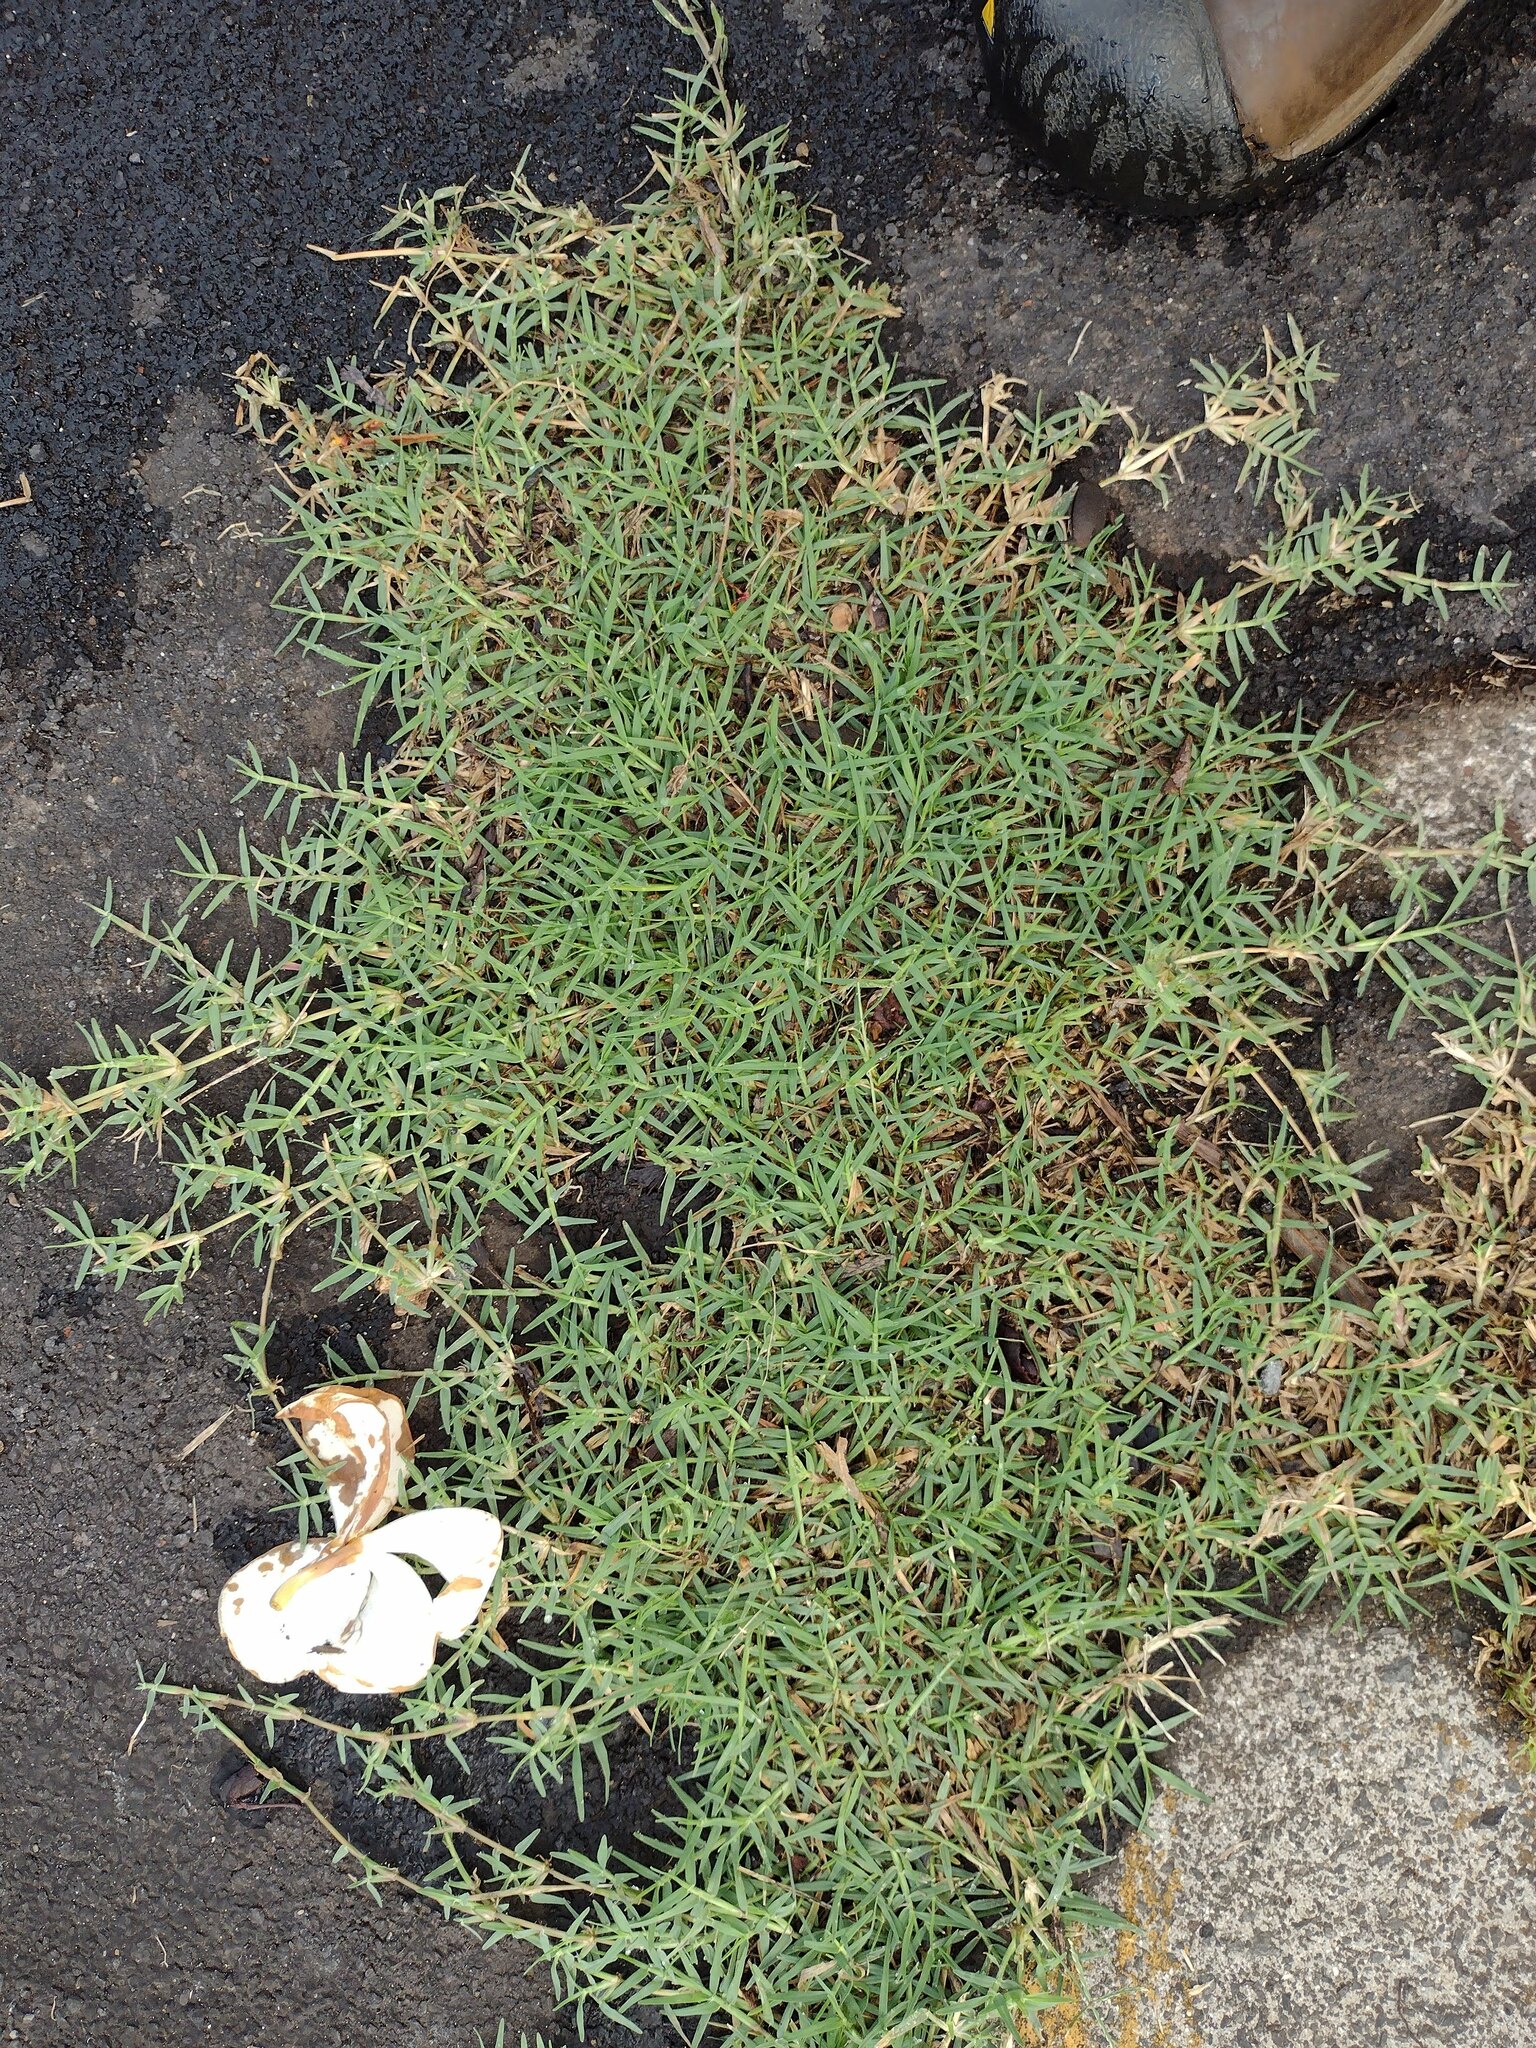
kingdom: Plantae
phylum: Tracheophyta
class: Liliopsida
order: Poales
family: Poaceae
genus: Cynodon
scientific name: Cynodon dactylon
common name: Bermuda grass
